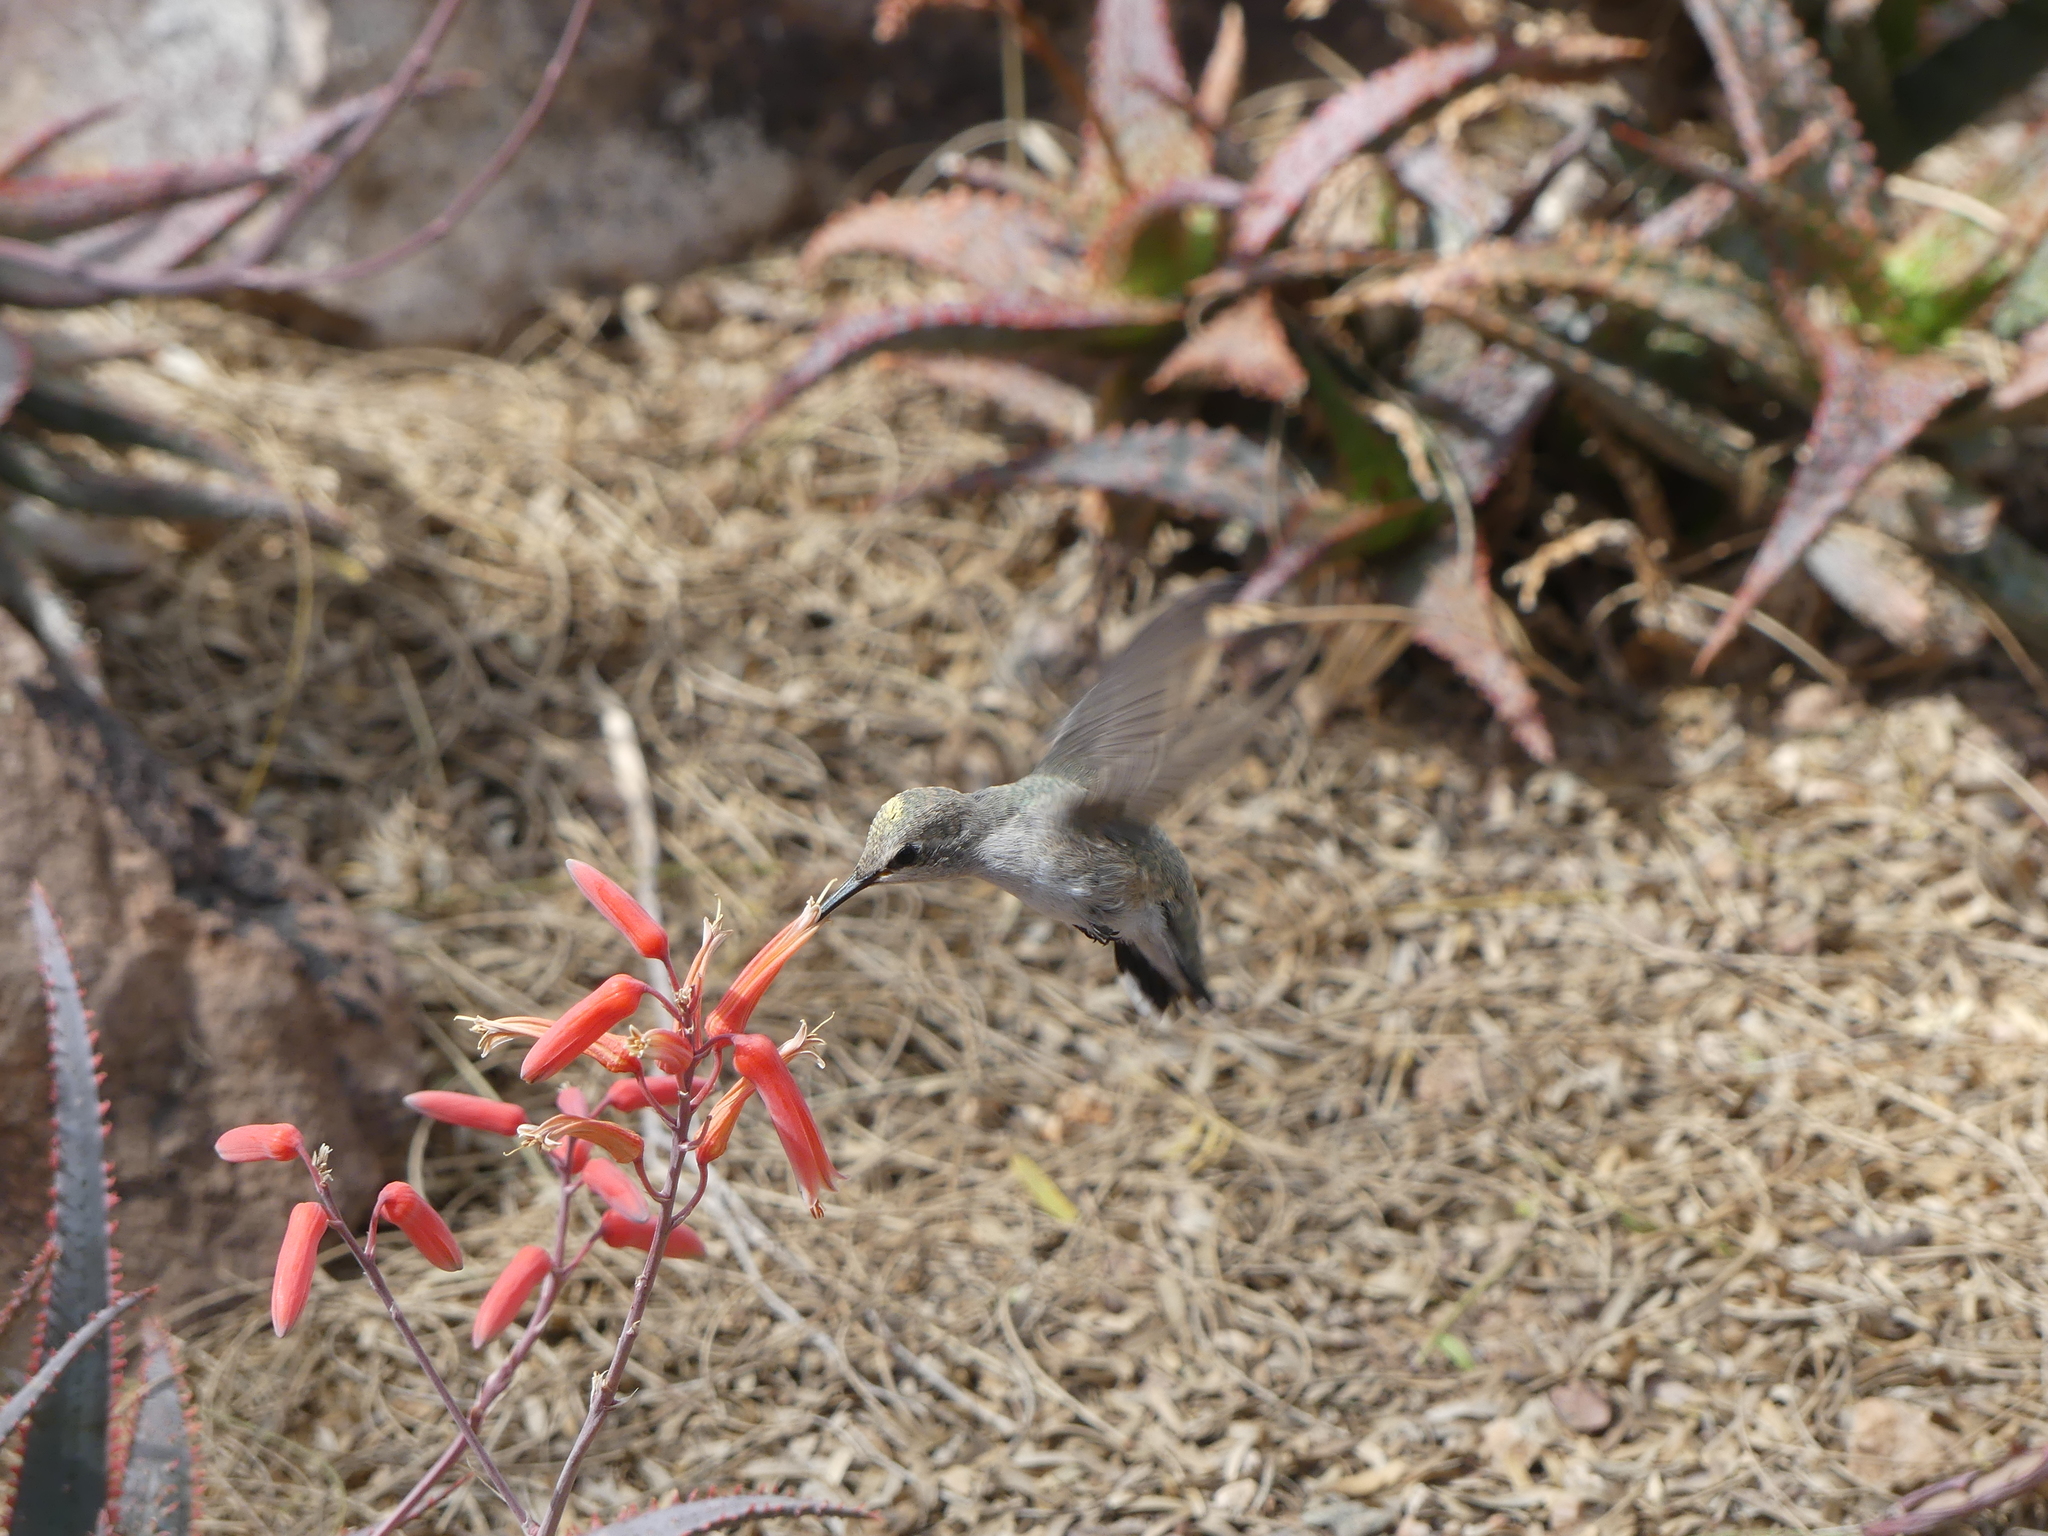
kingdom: Animalia
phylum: Chordata
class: Aves
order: Apodiformes
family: Trochilidae
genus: Calypte
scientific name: Calypte costae
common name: Costa's hummingbird
